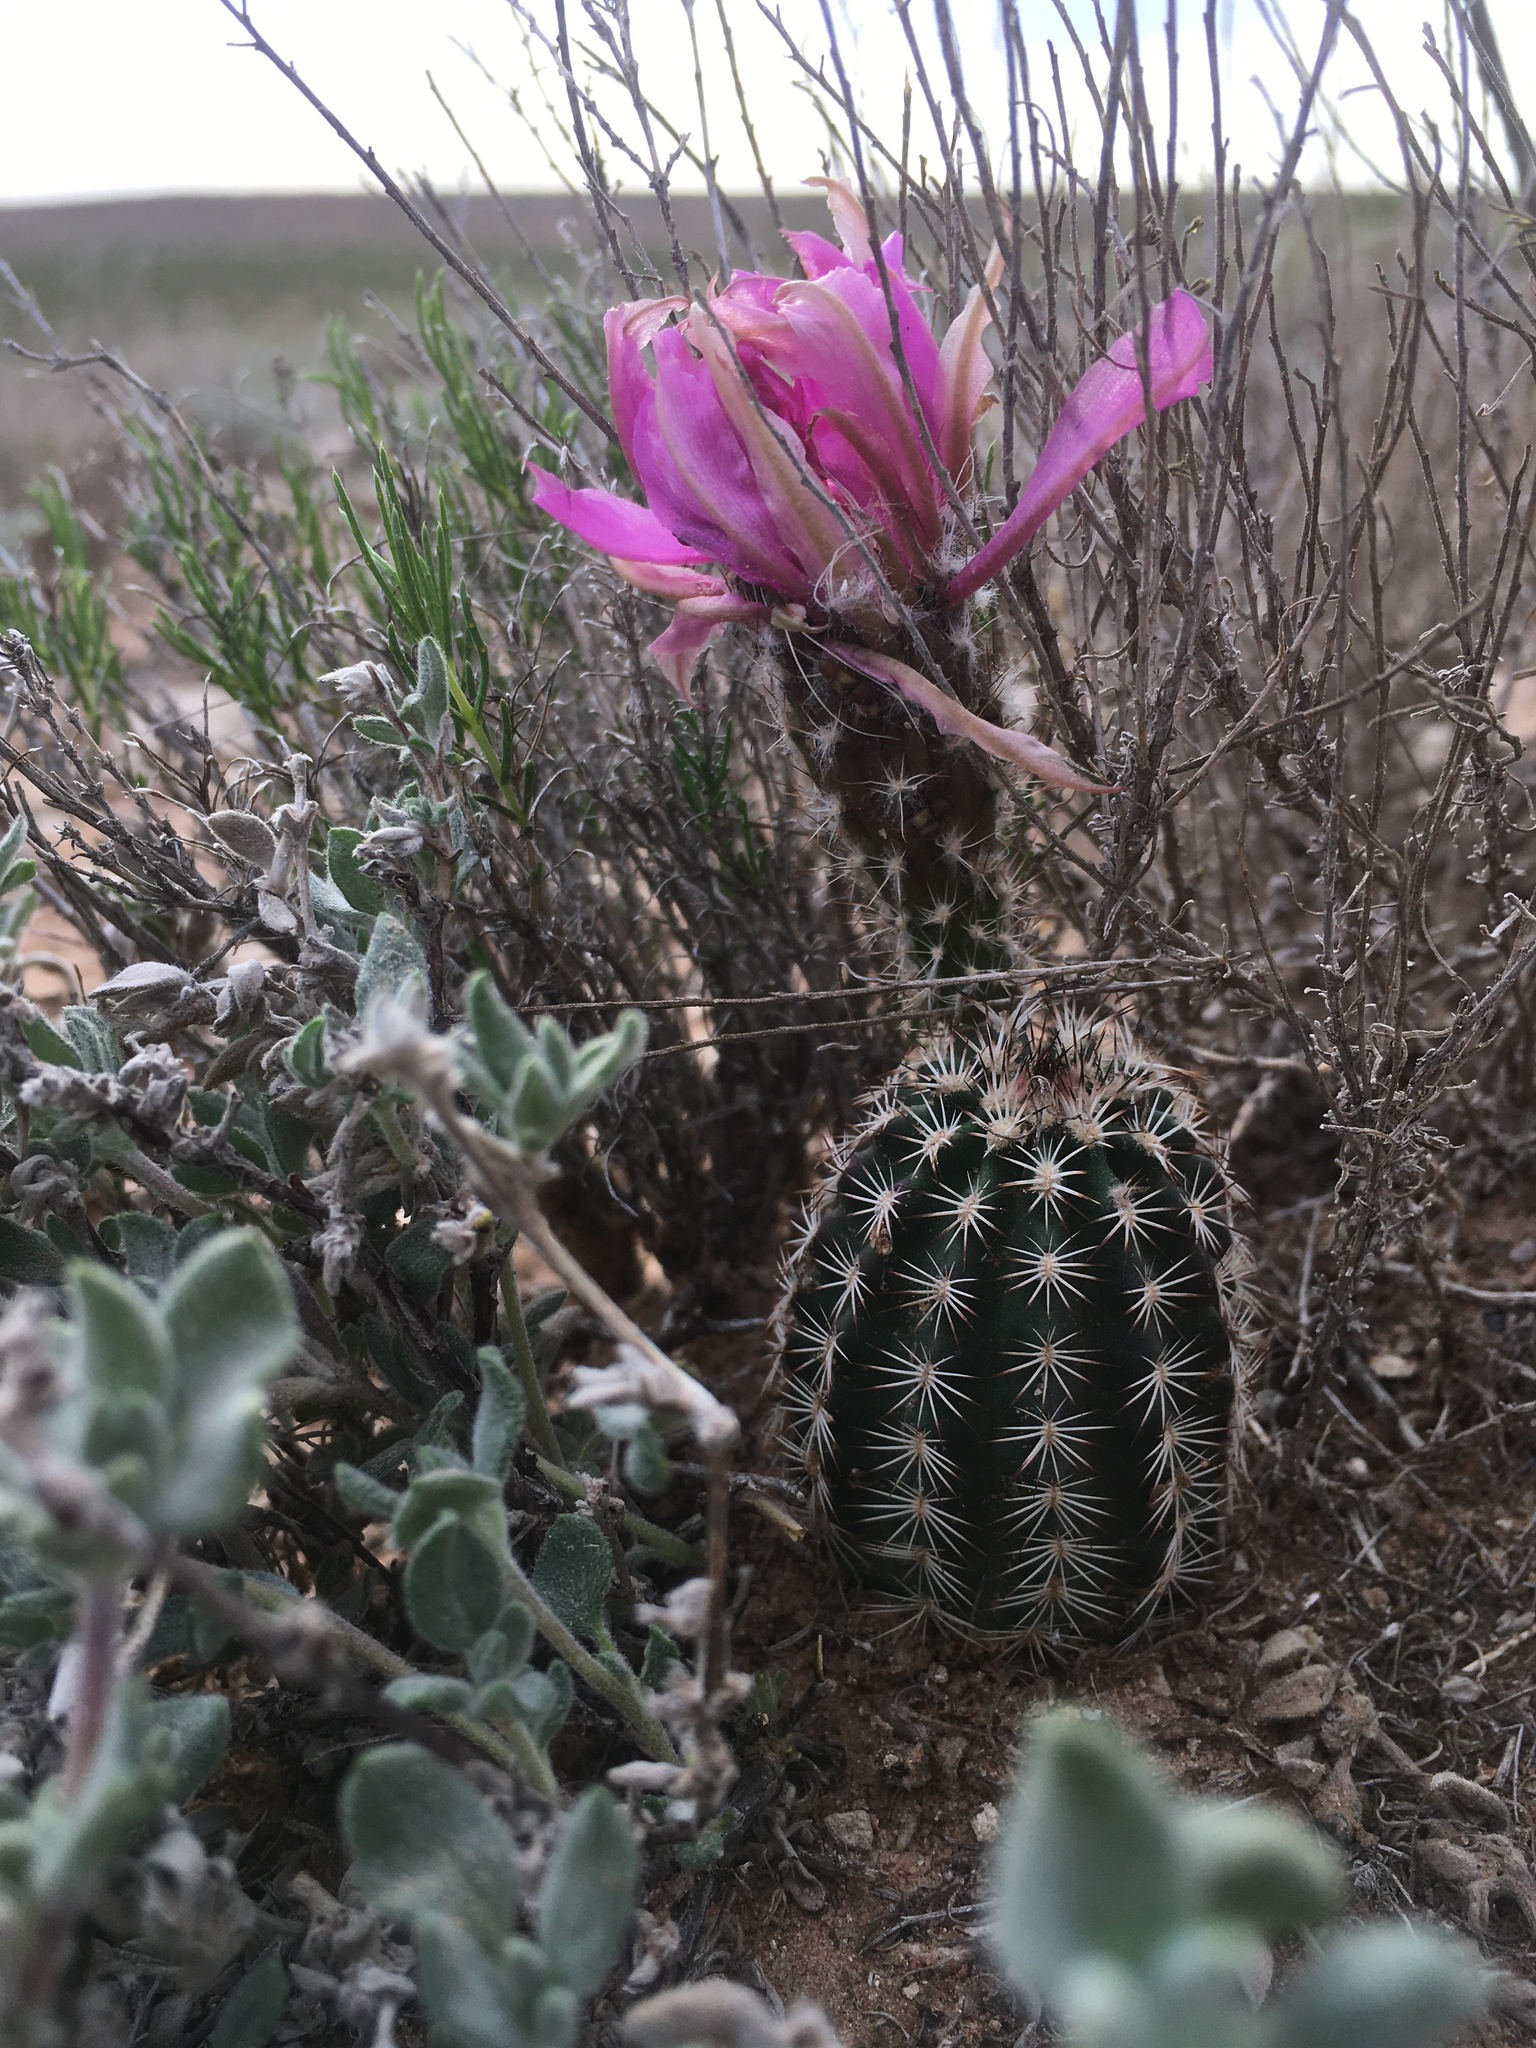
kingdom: Plantae
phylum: Tracheophyta
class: Magnoliopsida
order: Caryophyllales
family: Cactaceae
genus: Echinocereus
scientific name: Echinocereus reichenbachii
